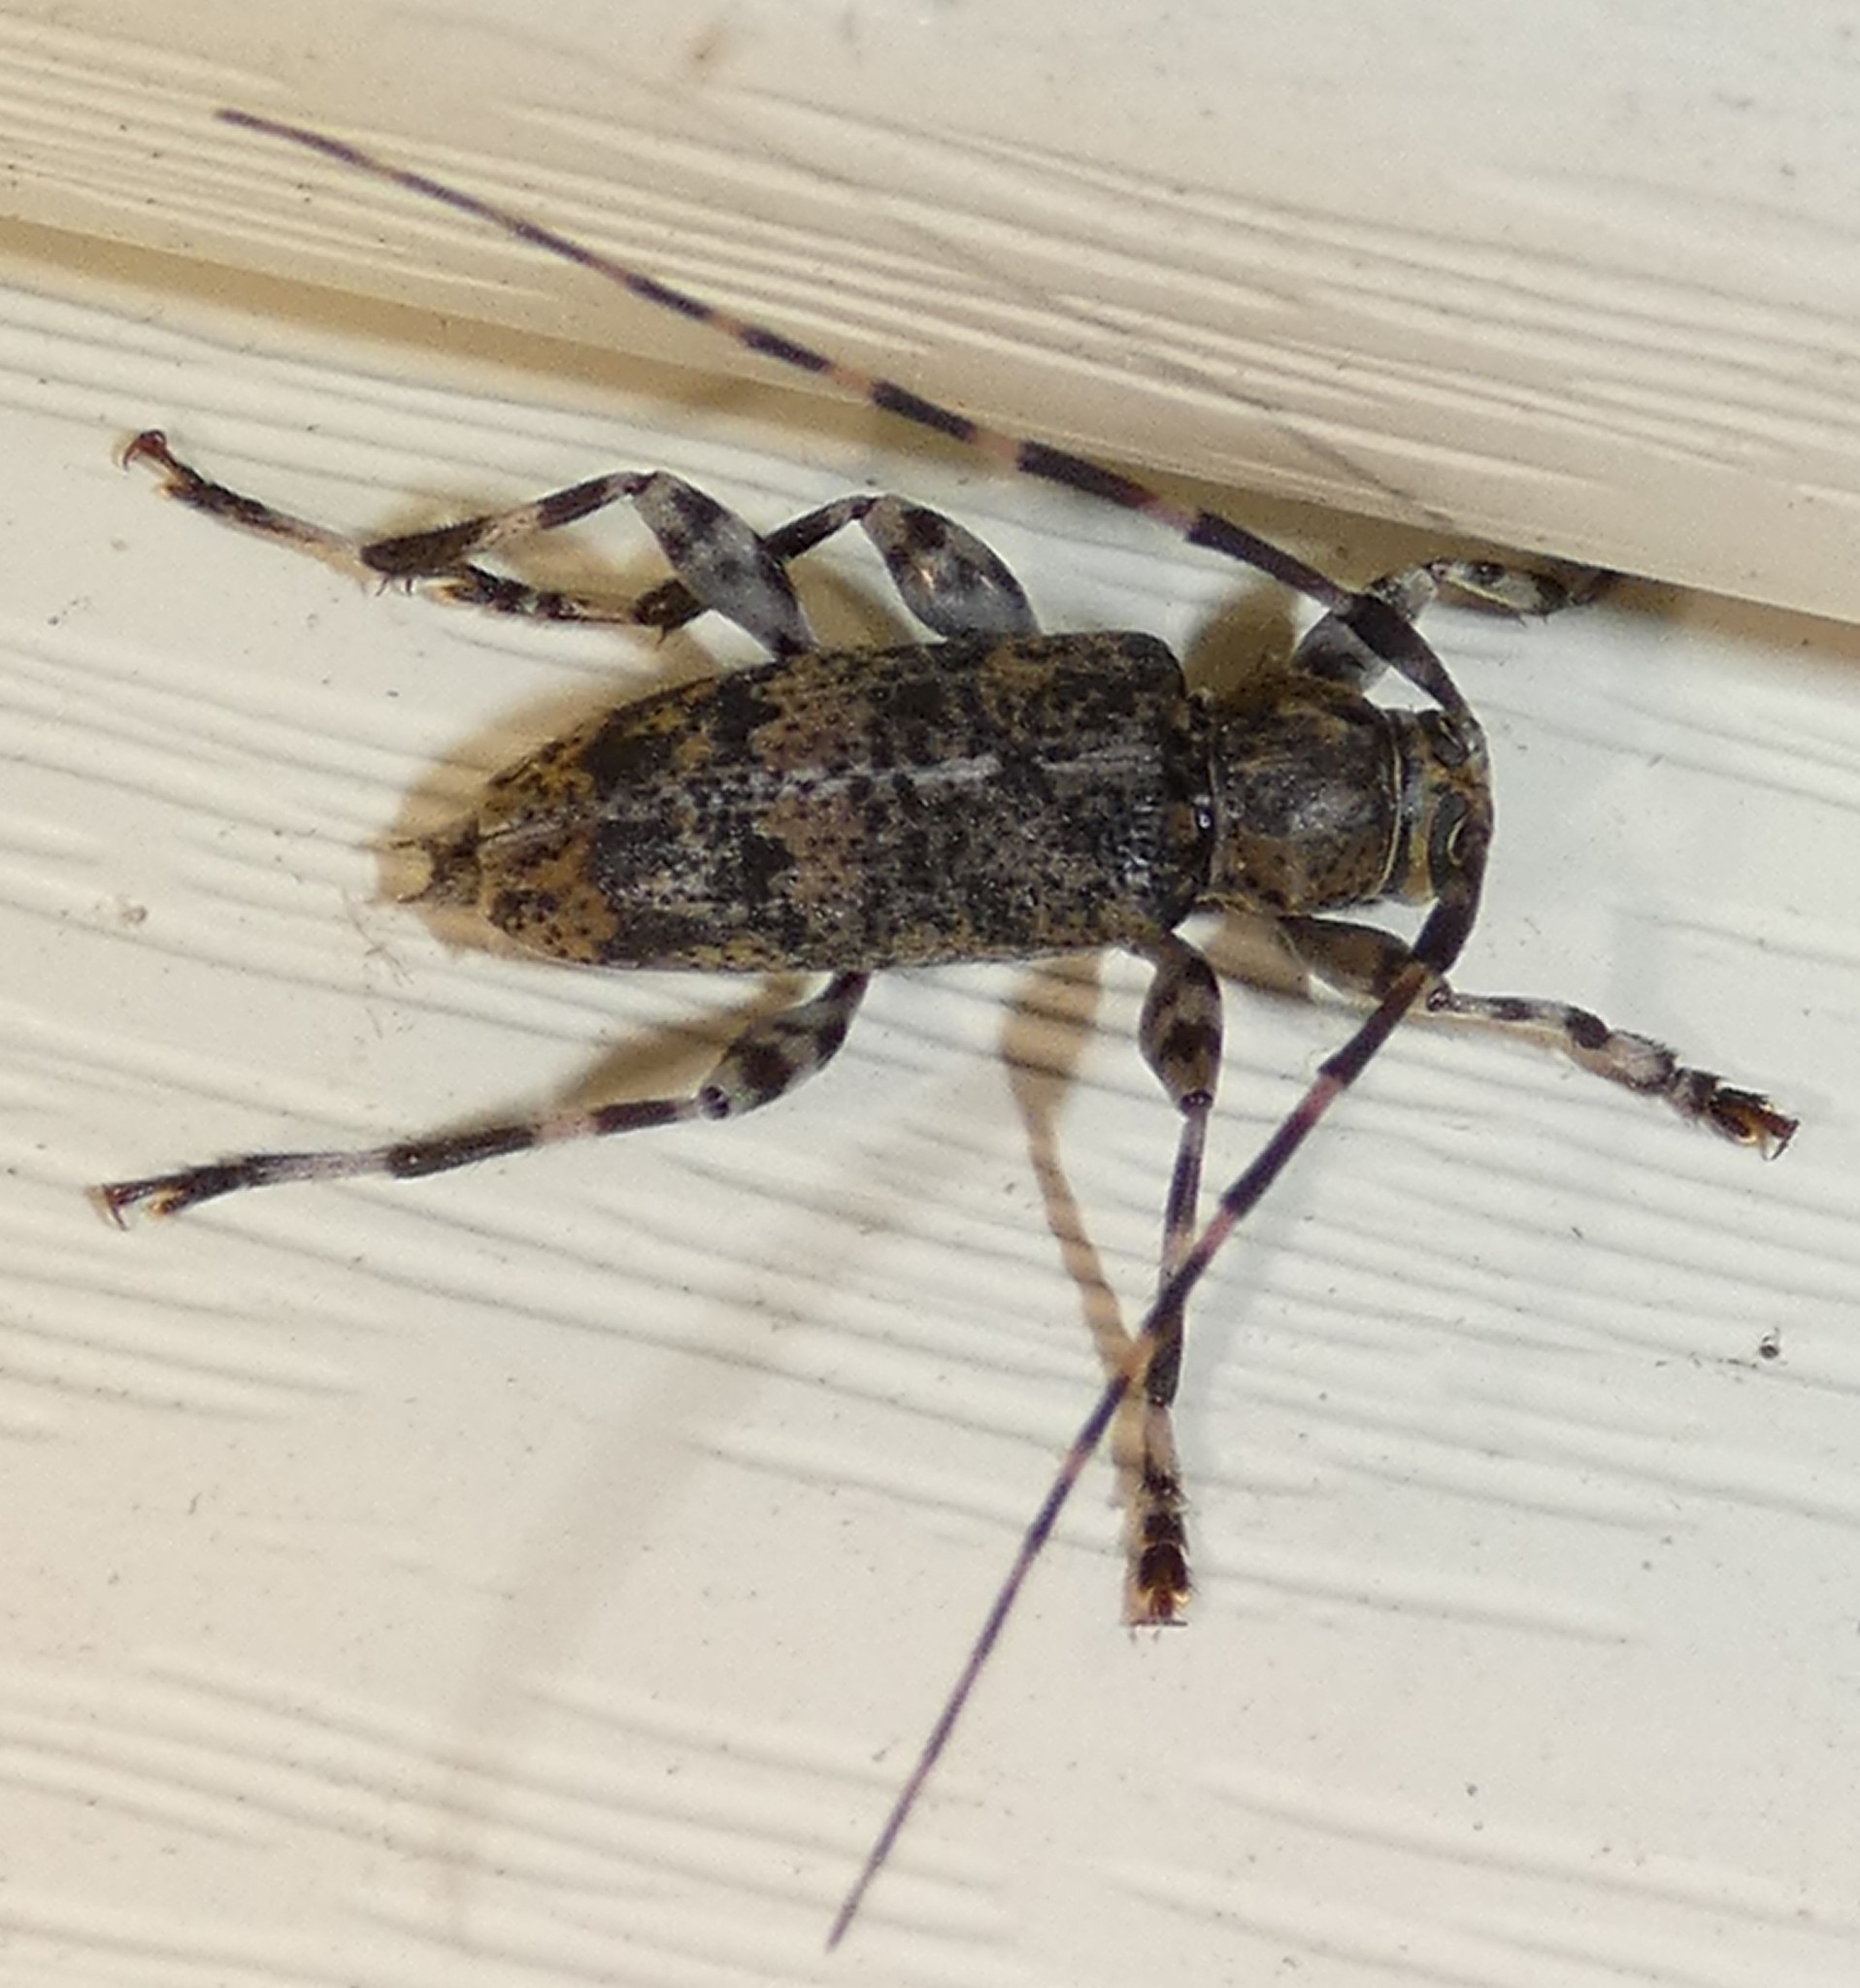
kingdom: Animalia
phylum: Arthropoda
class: Insecta
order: Coleoptera
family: Cerambycidae
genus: Graphisurus
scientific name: Graphisurus fasciatus
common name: Banded graphisurus
